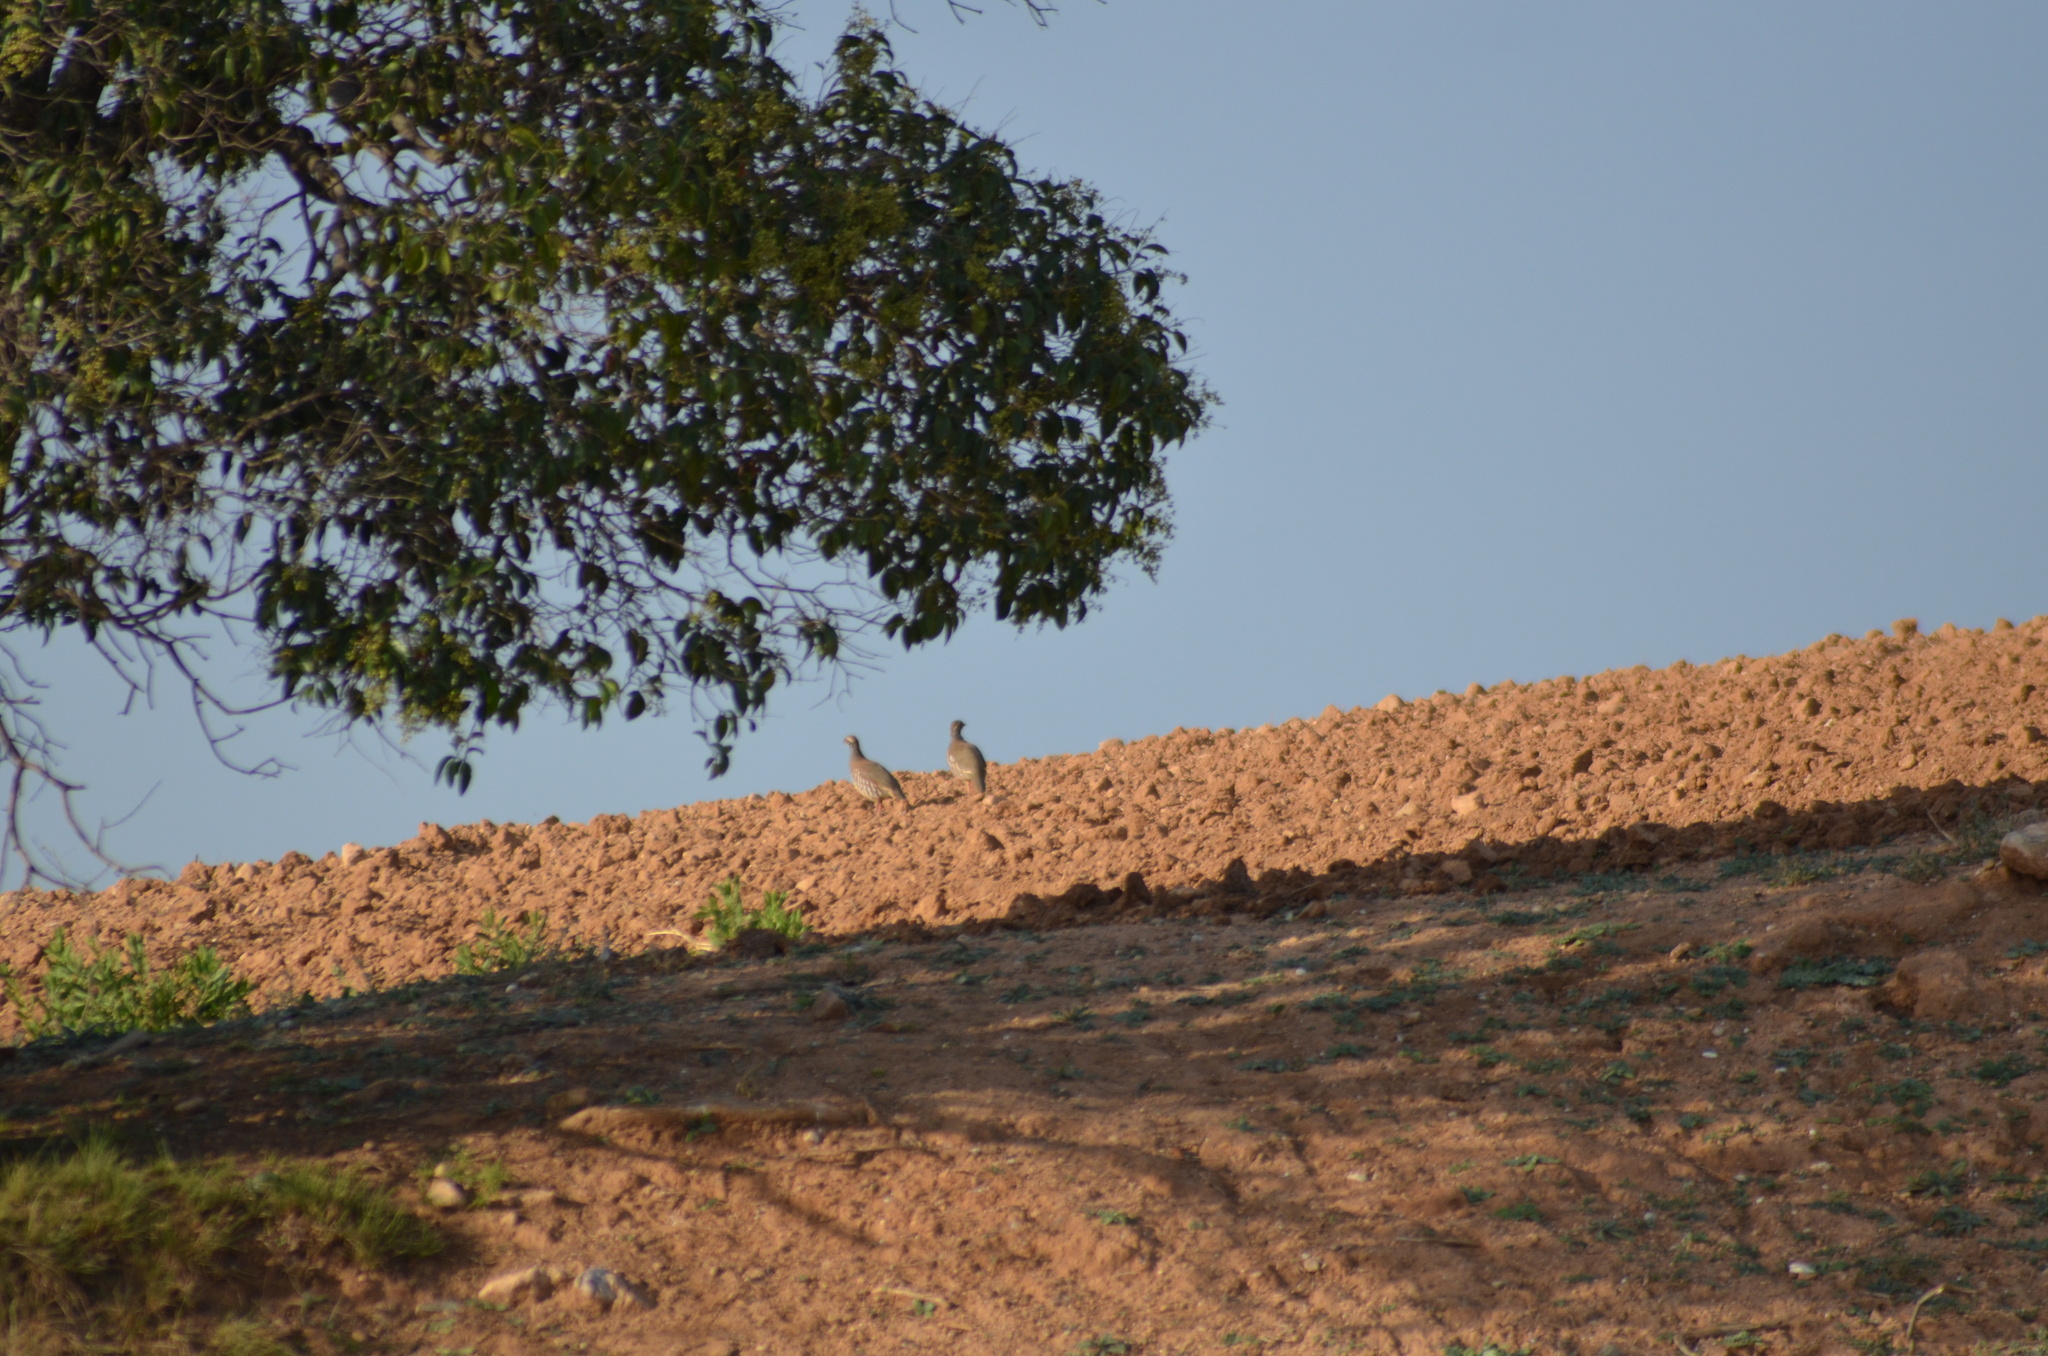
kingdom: Animalia
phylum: Chordata
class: Aves
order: Galliformes
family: Phasianidae
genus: Alectoris
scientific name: Alectoris rufa
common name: Red-legged partridge
